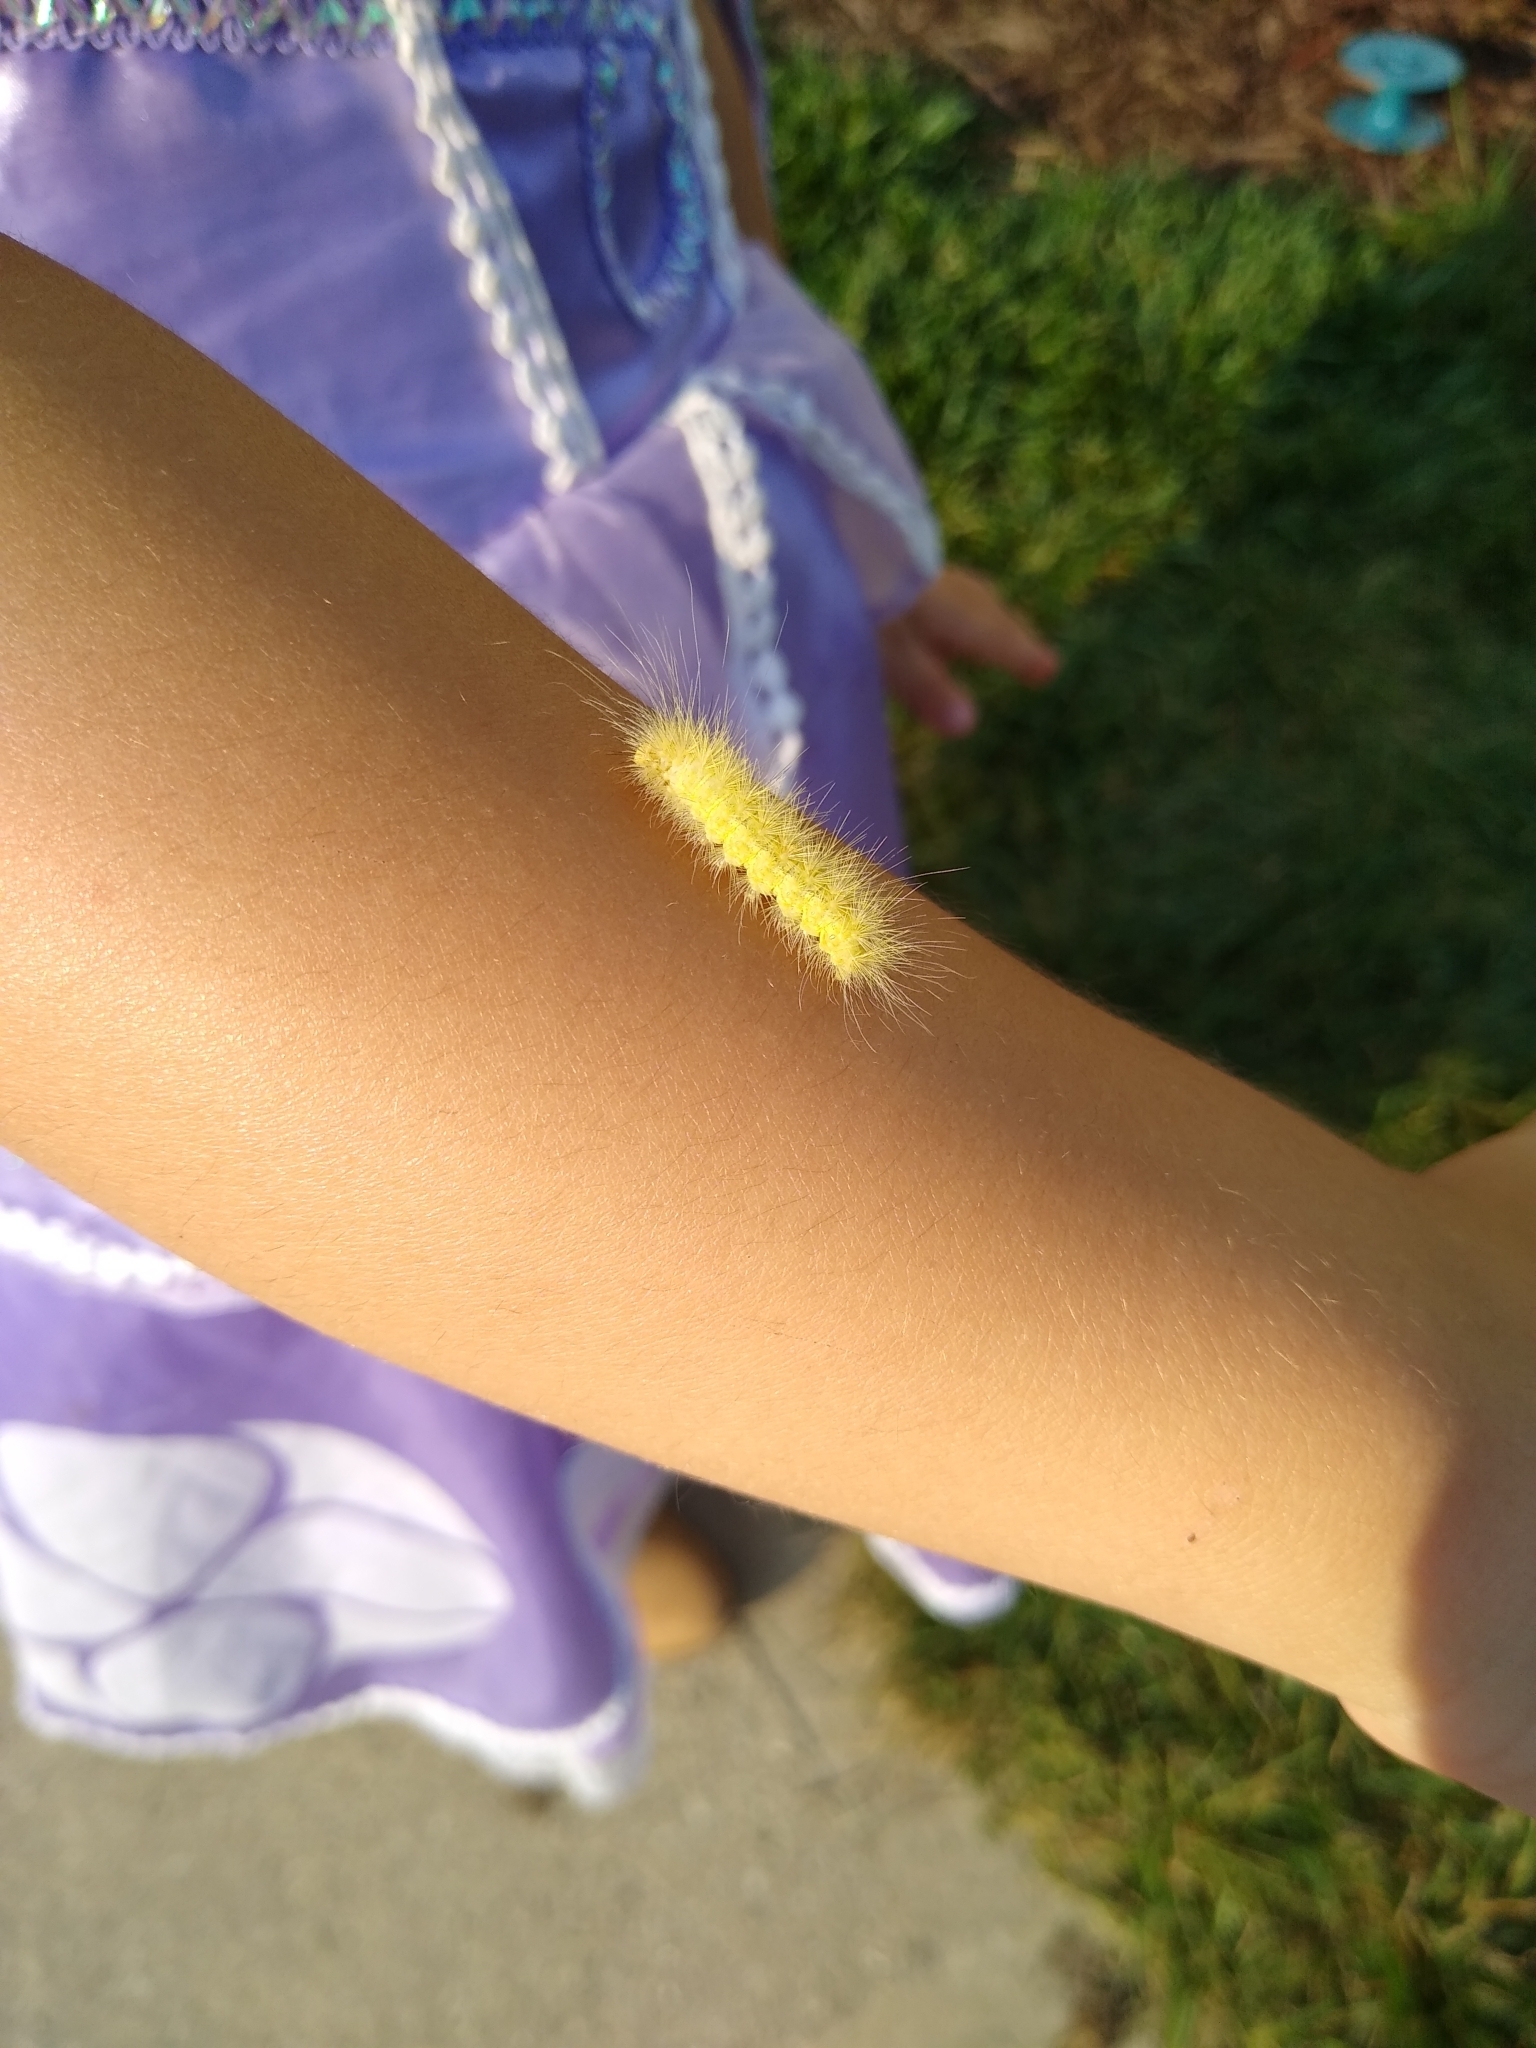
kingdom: Animalia
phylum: Arthropoda
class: Insecta
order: Lepidoptera
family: Erebidae
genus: Spilosoma
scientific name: Spilosoma virginica
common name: Virginia tiger moth
